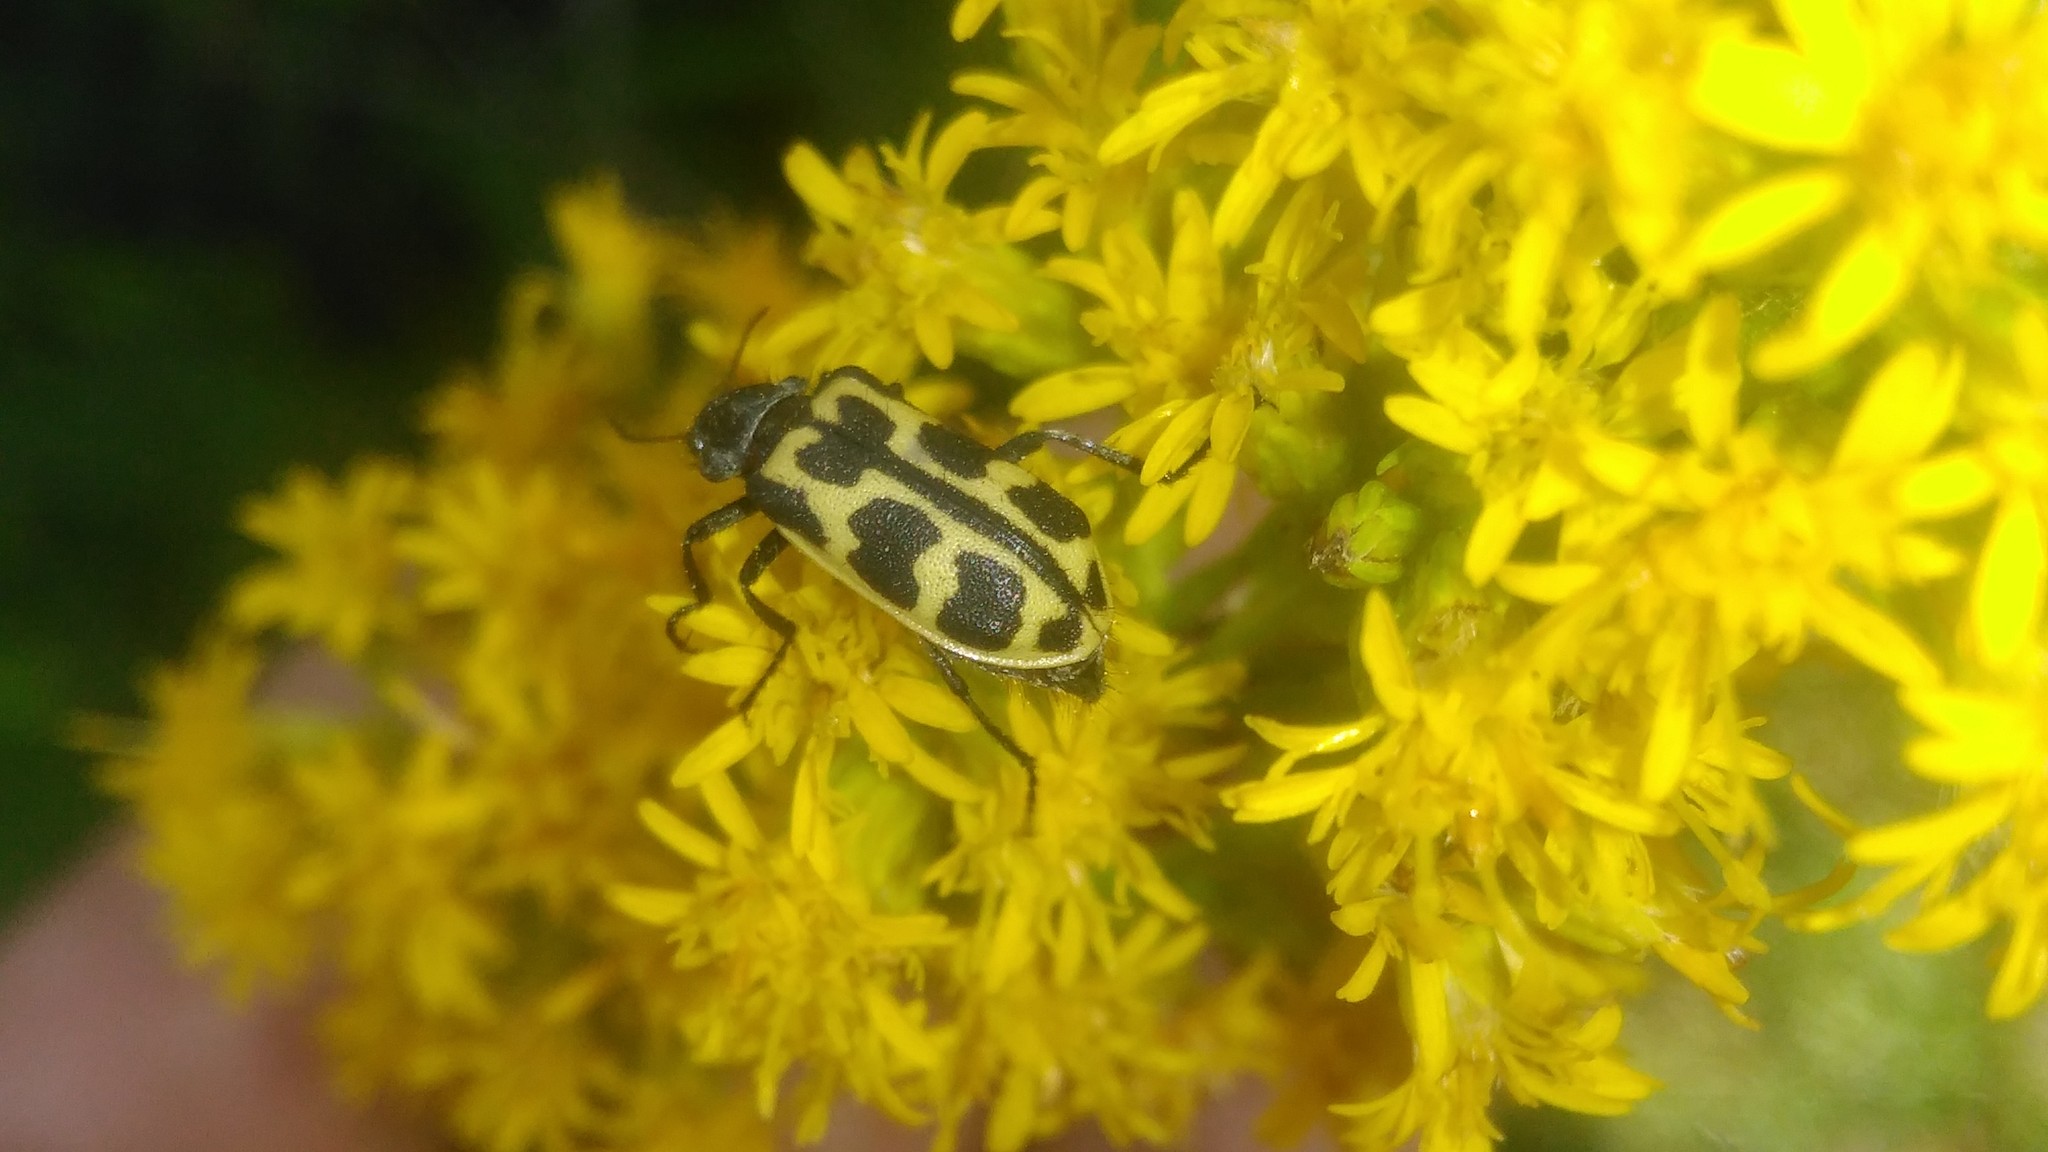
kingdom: Animalia
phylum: Arthropoda
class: Insecta
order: Coleoptera
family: Melyridae
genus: Astylus
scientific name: Astylus atromaculatus
